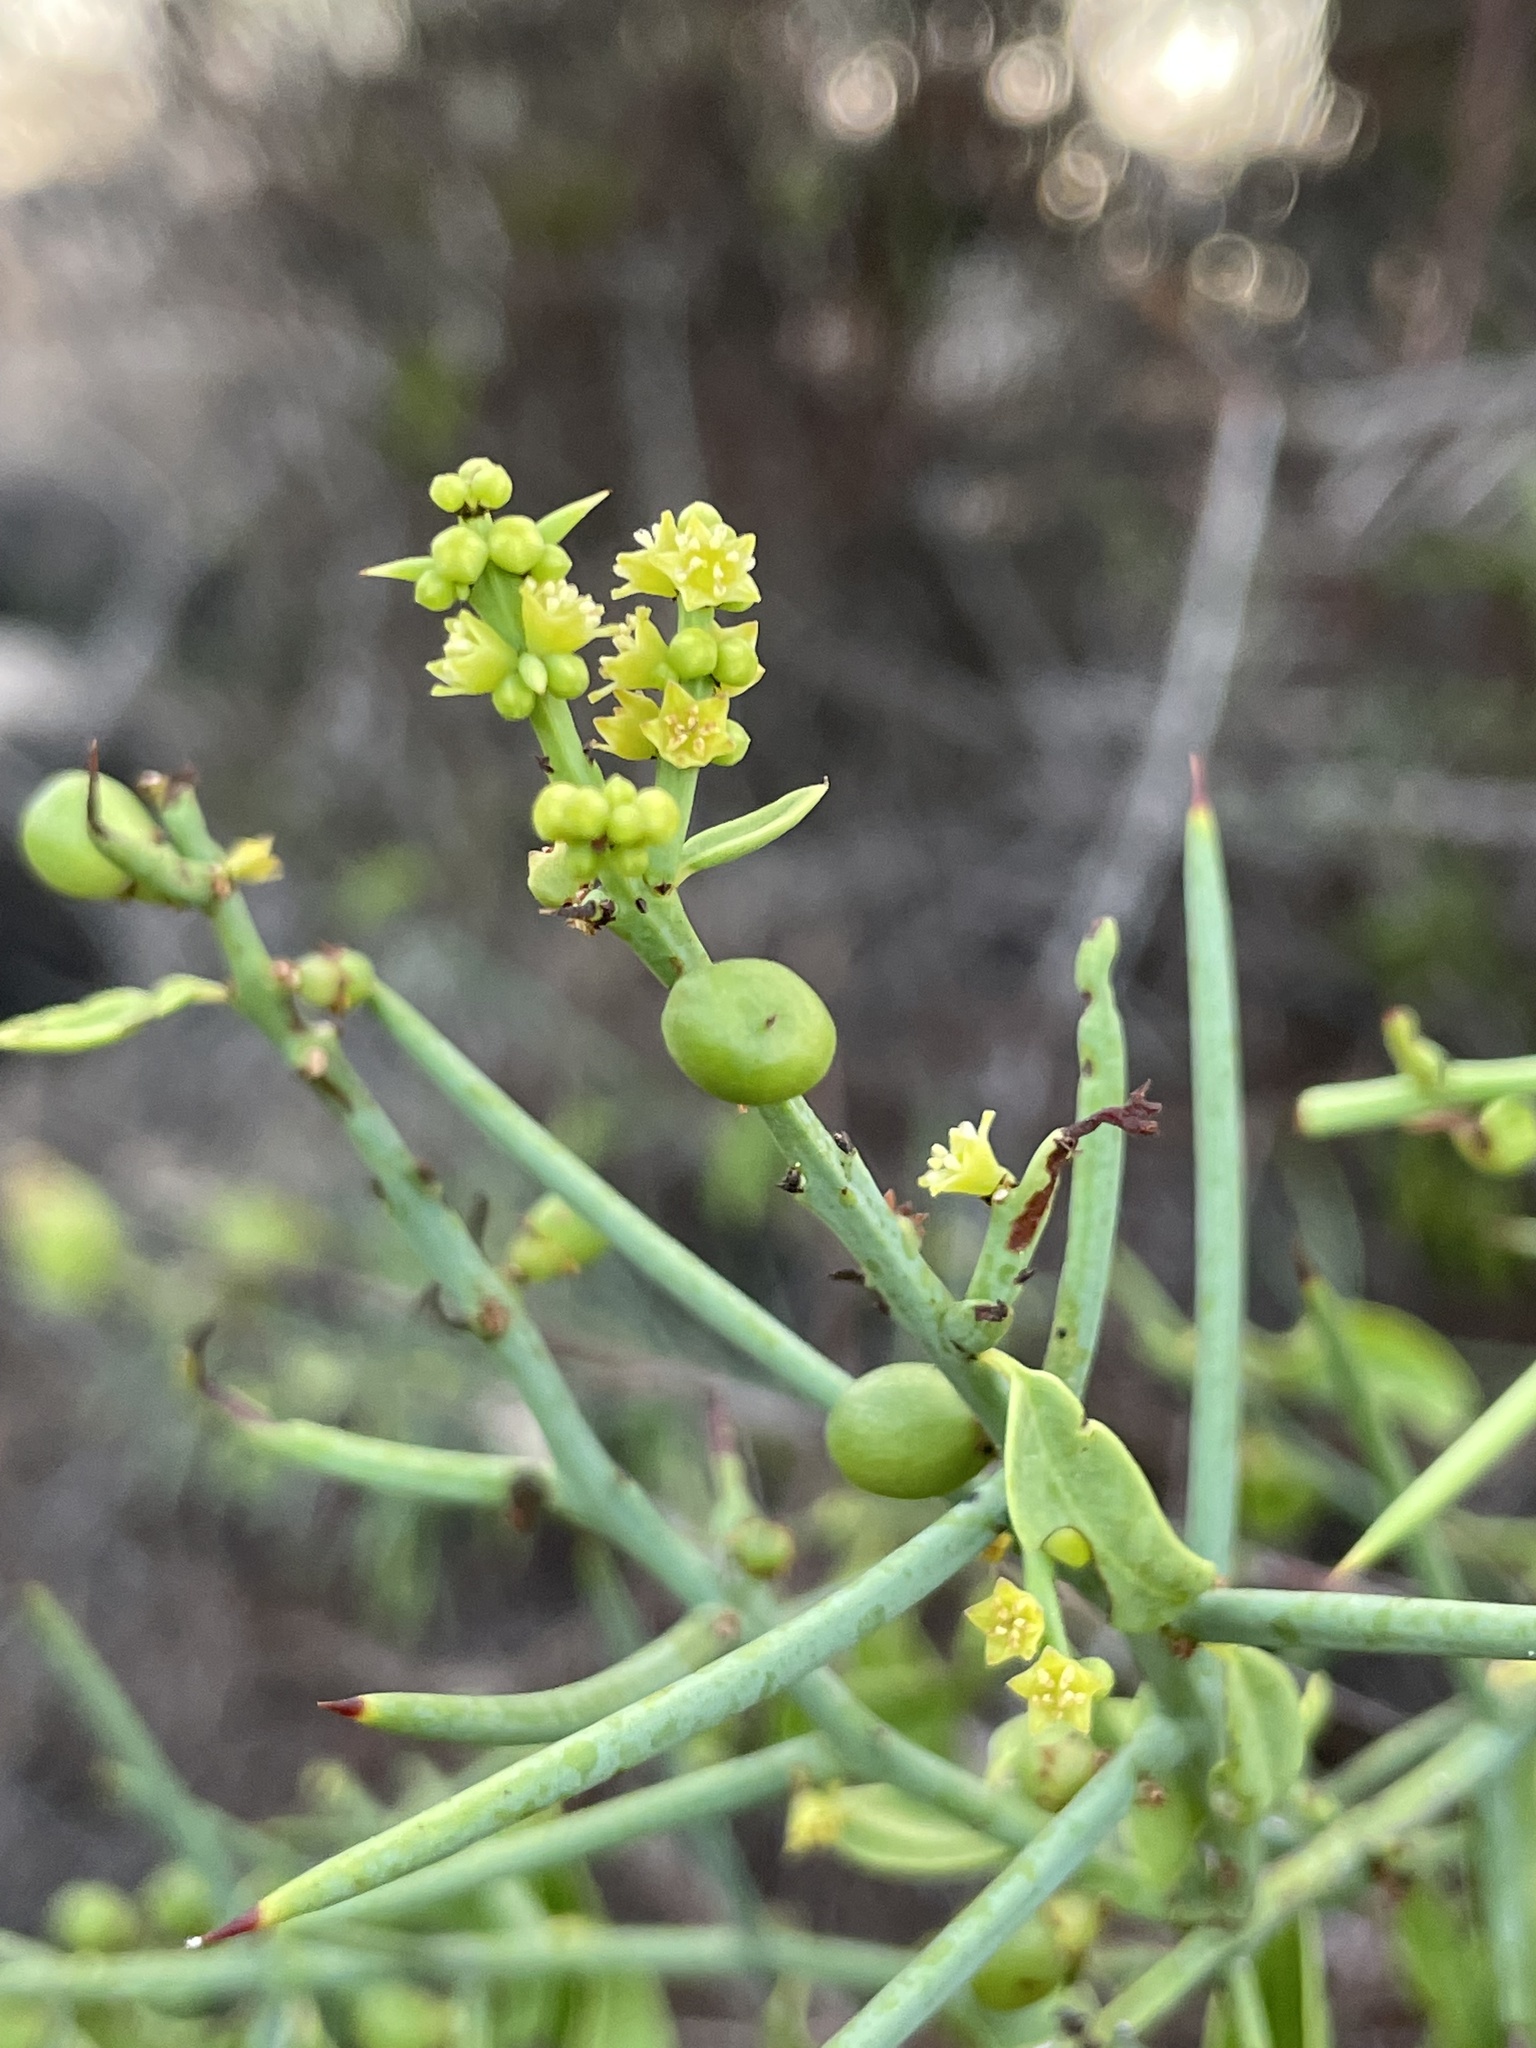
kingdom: Plantae
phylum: Tracheophyta
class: Magnoliopsida
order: Rosales
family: Rhamnaceae
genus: Scutia
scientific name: Scutia spicata
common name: Spiny bush
